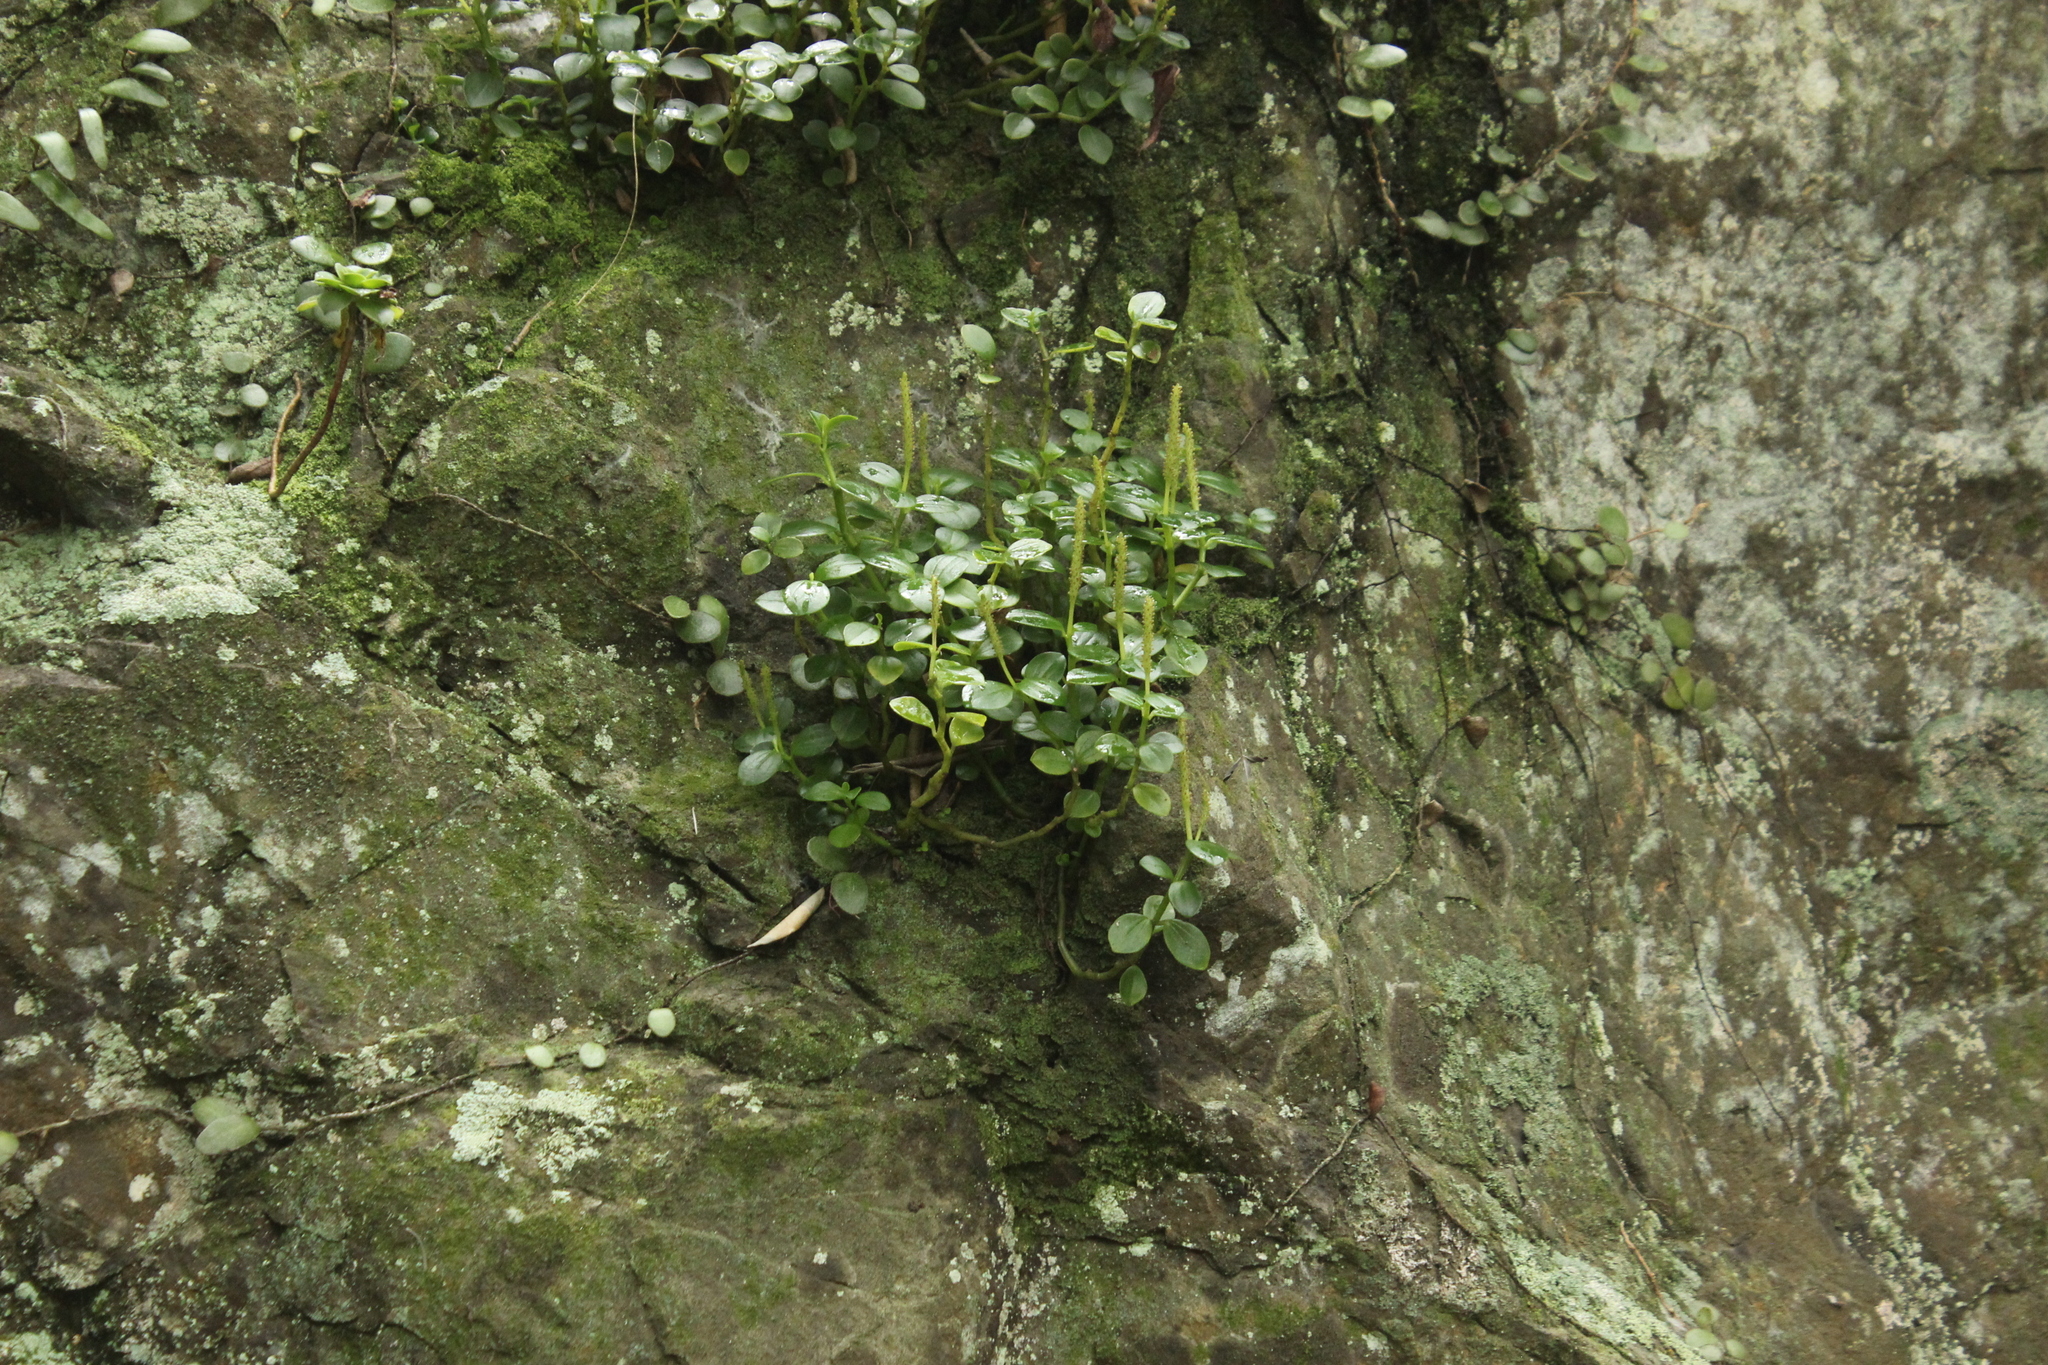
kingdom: Plantae
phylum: Tracheophyta
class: Magnoliopsida
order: Piperales
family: Piperaceae
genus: Peperomia
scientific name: Peperomia urvilleana
